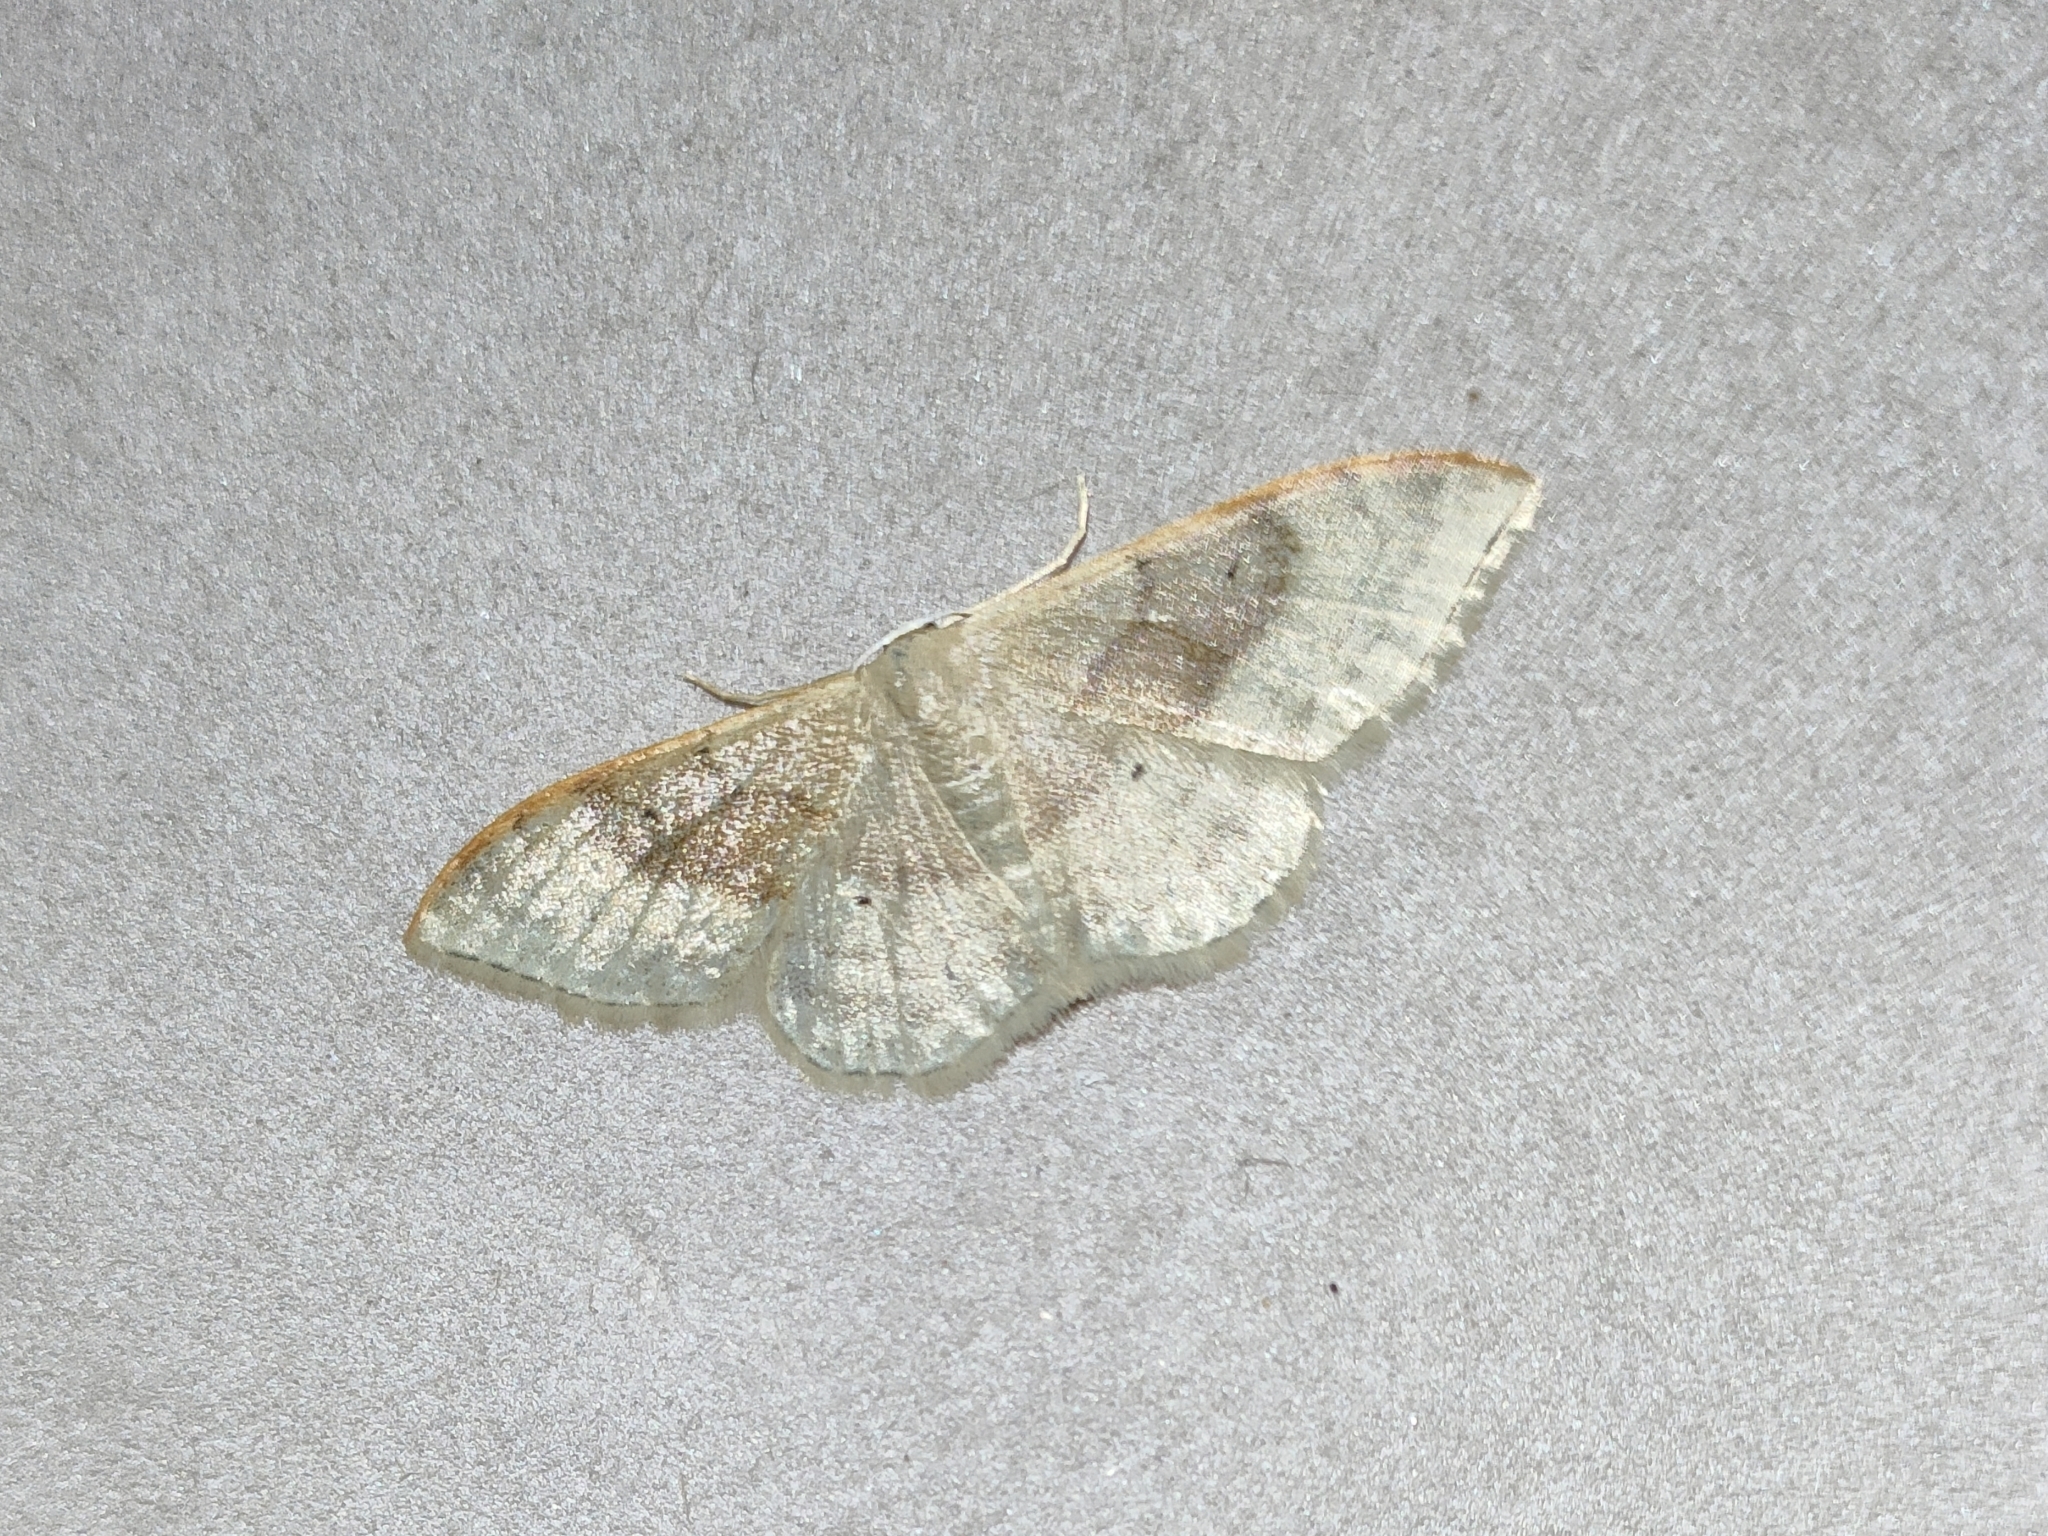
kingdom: Animalia
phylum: Arthropoda
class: Insecta
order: Lepidoptera
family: Geometridae
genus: Idaea
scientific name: Idaea degeneraria
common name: Portland ribbon wave
